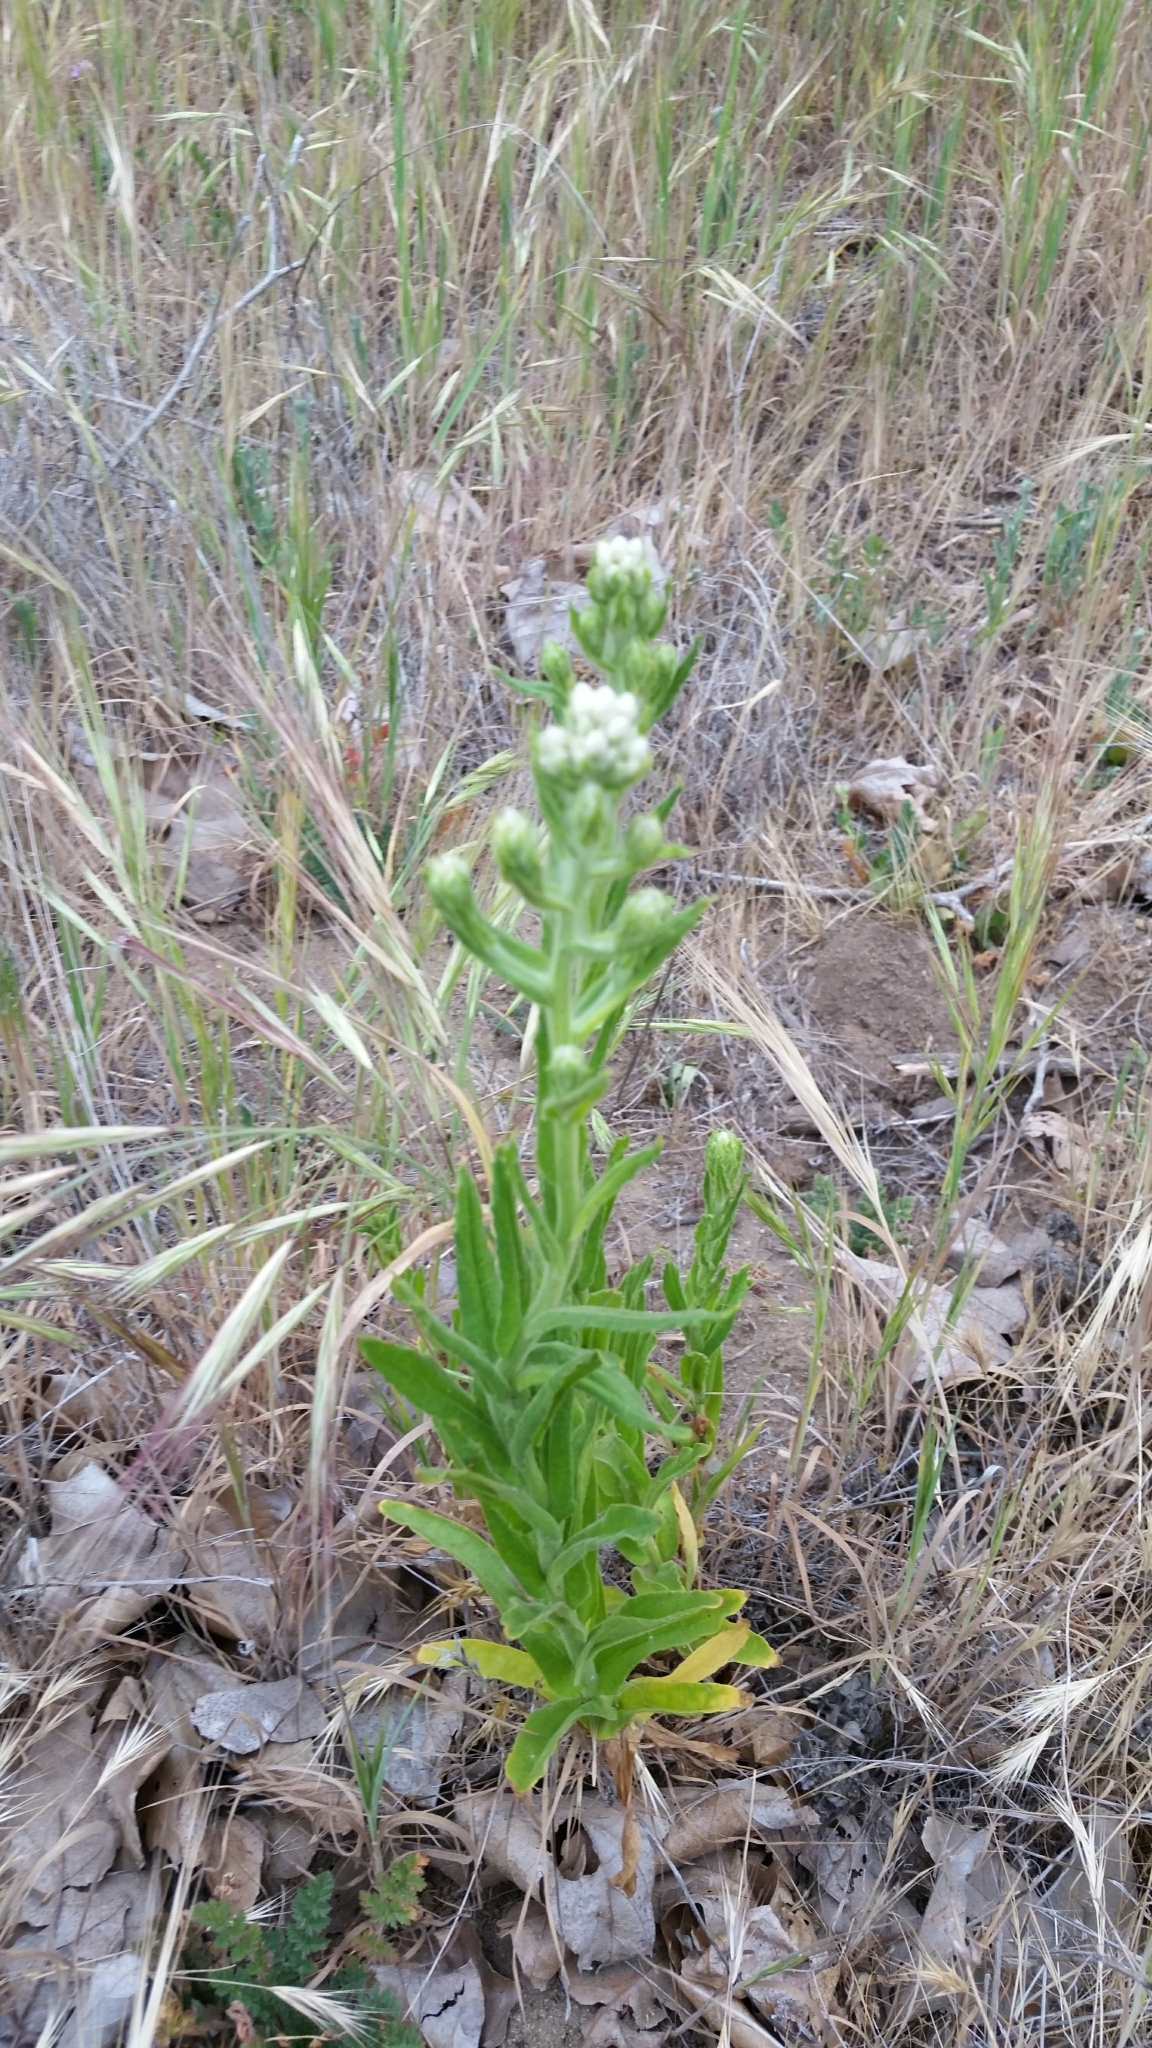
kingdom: Plantae
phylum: Tracheophyta
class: Magnoliopsida
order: Asterales
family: Asteraceae
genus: Pseudognaphalium
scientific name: Pseudognaphalium californicum
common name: California rabbit-tobacco
